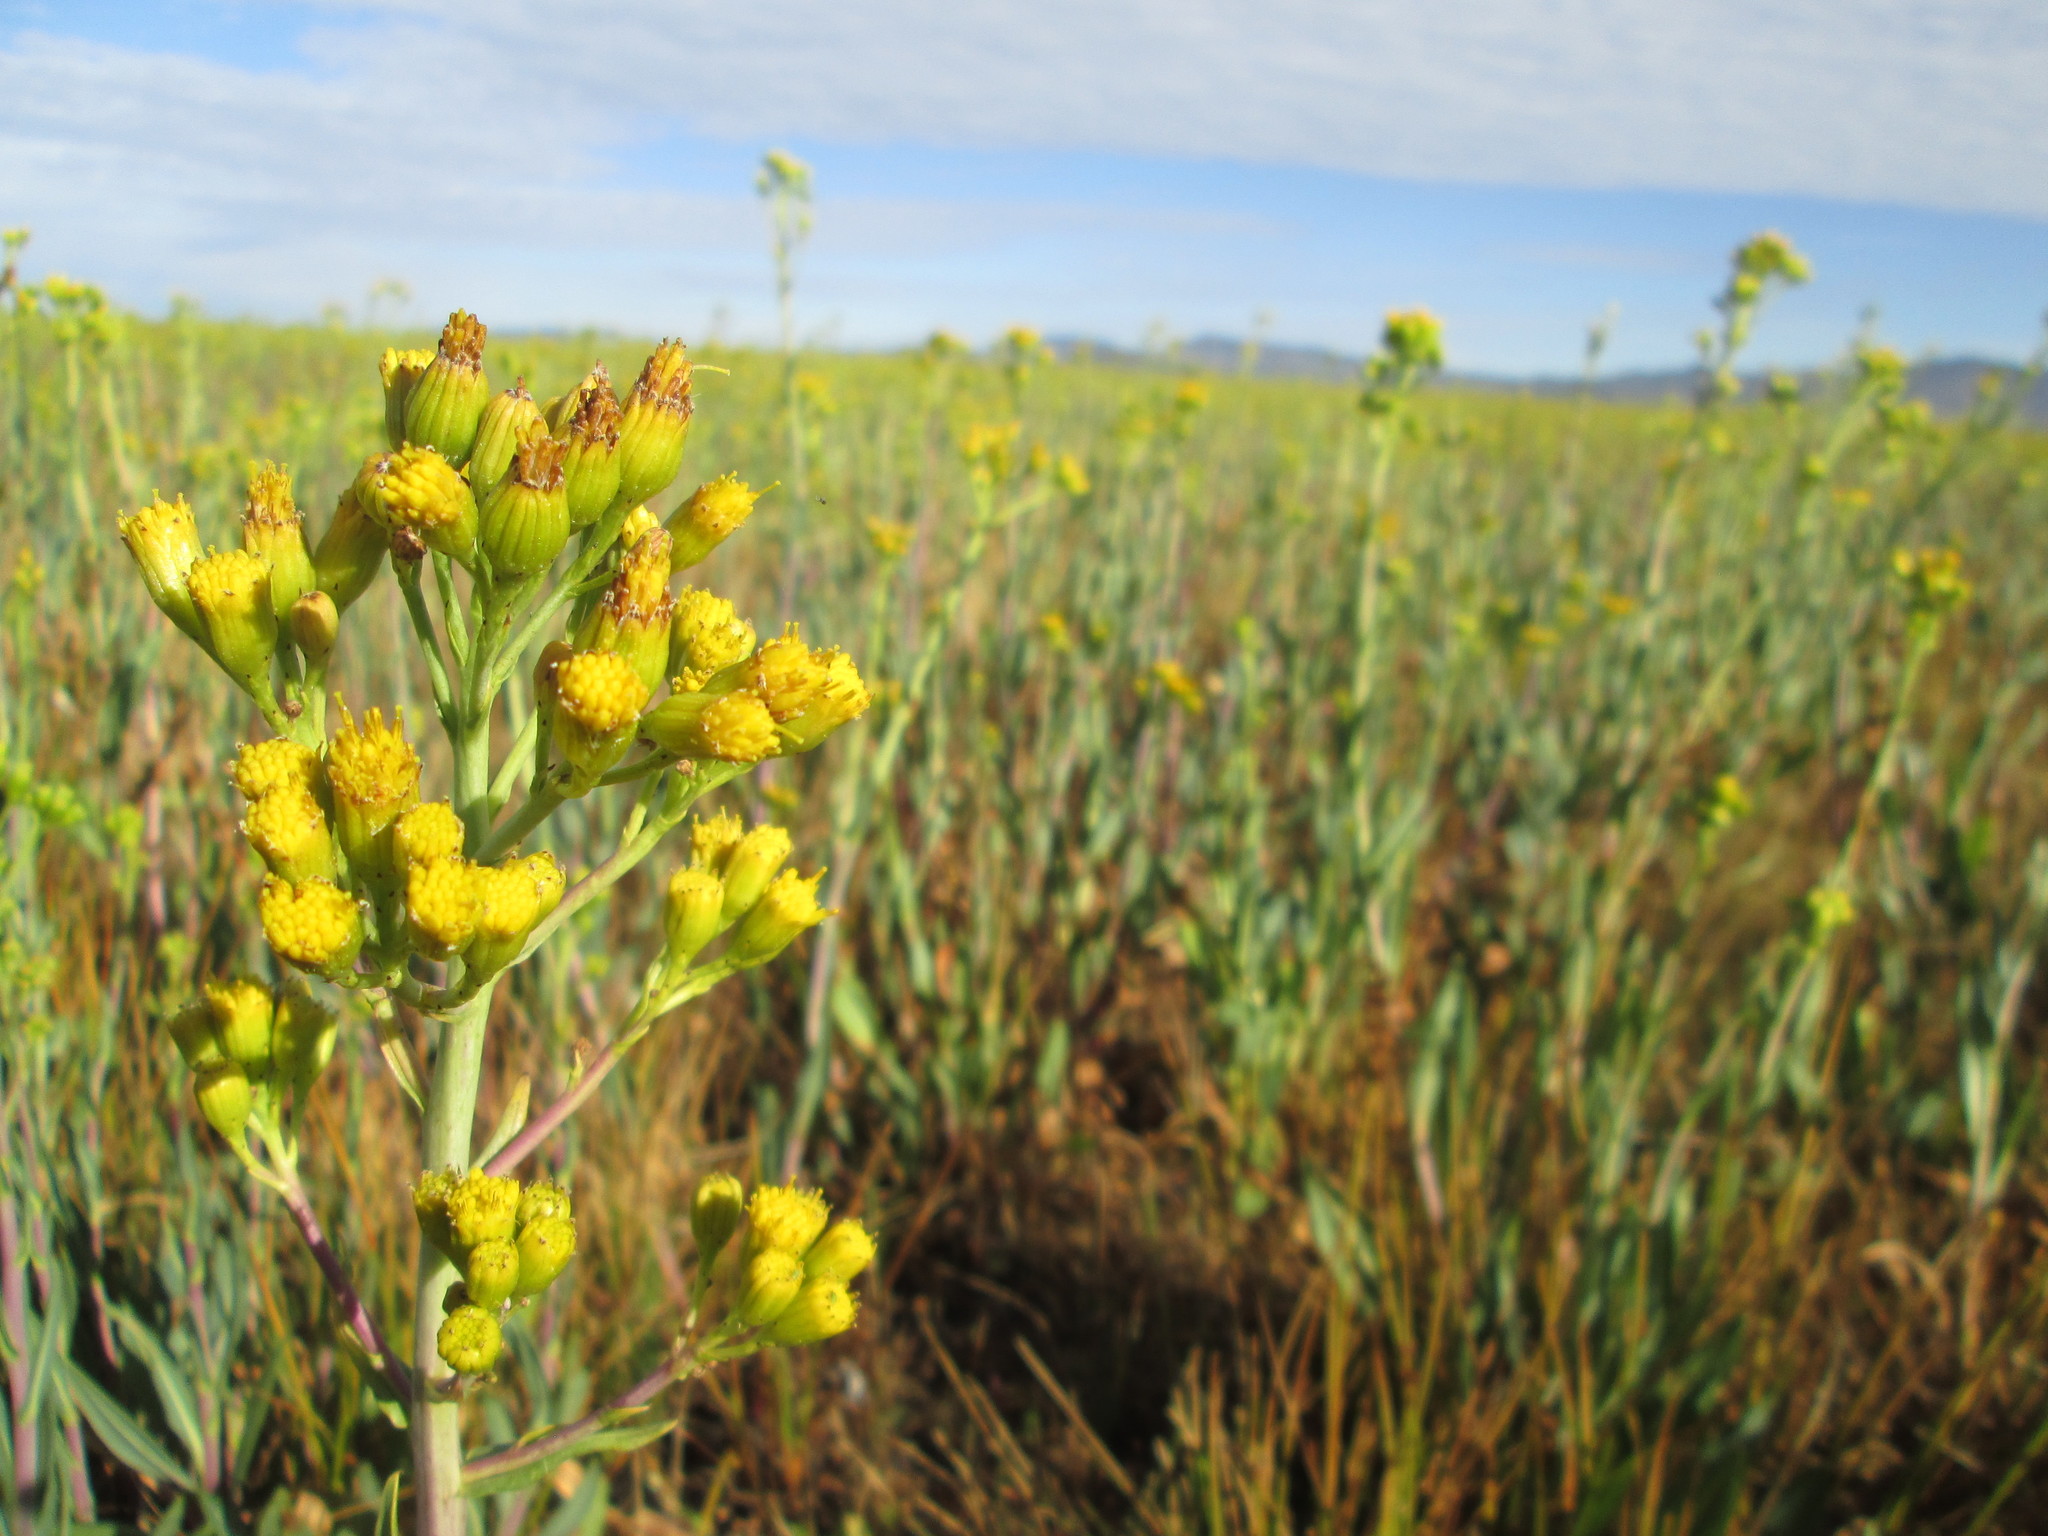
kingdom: Plantae
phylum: Tracheophyta
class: Magnoliopsida
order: Asterales
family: Asteraceae
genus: Senecio
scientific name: Senecio hydrophilus
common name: Water ragwort
